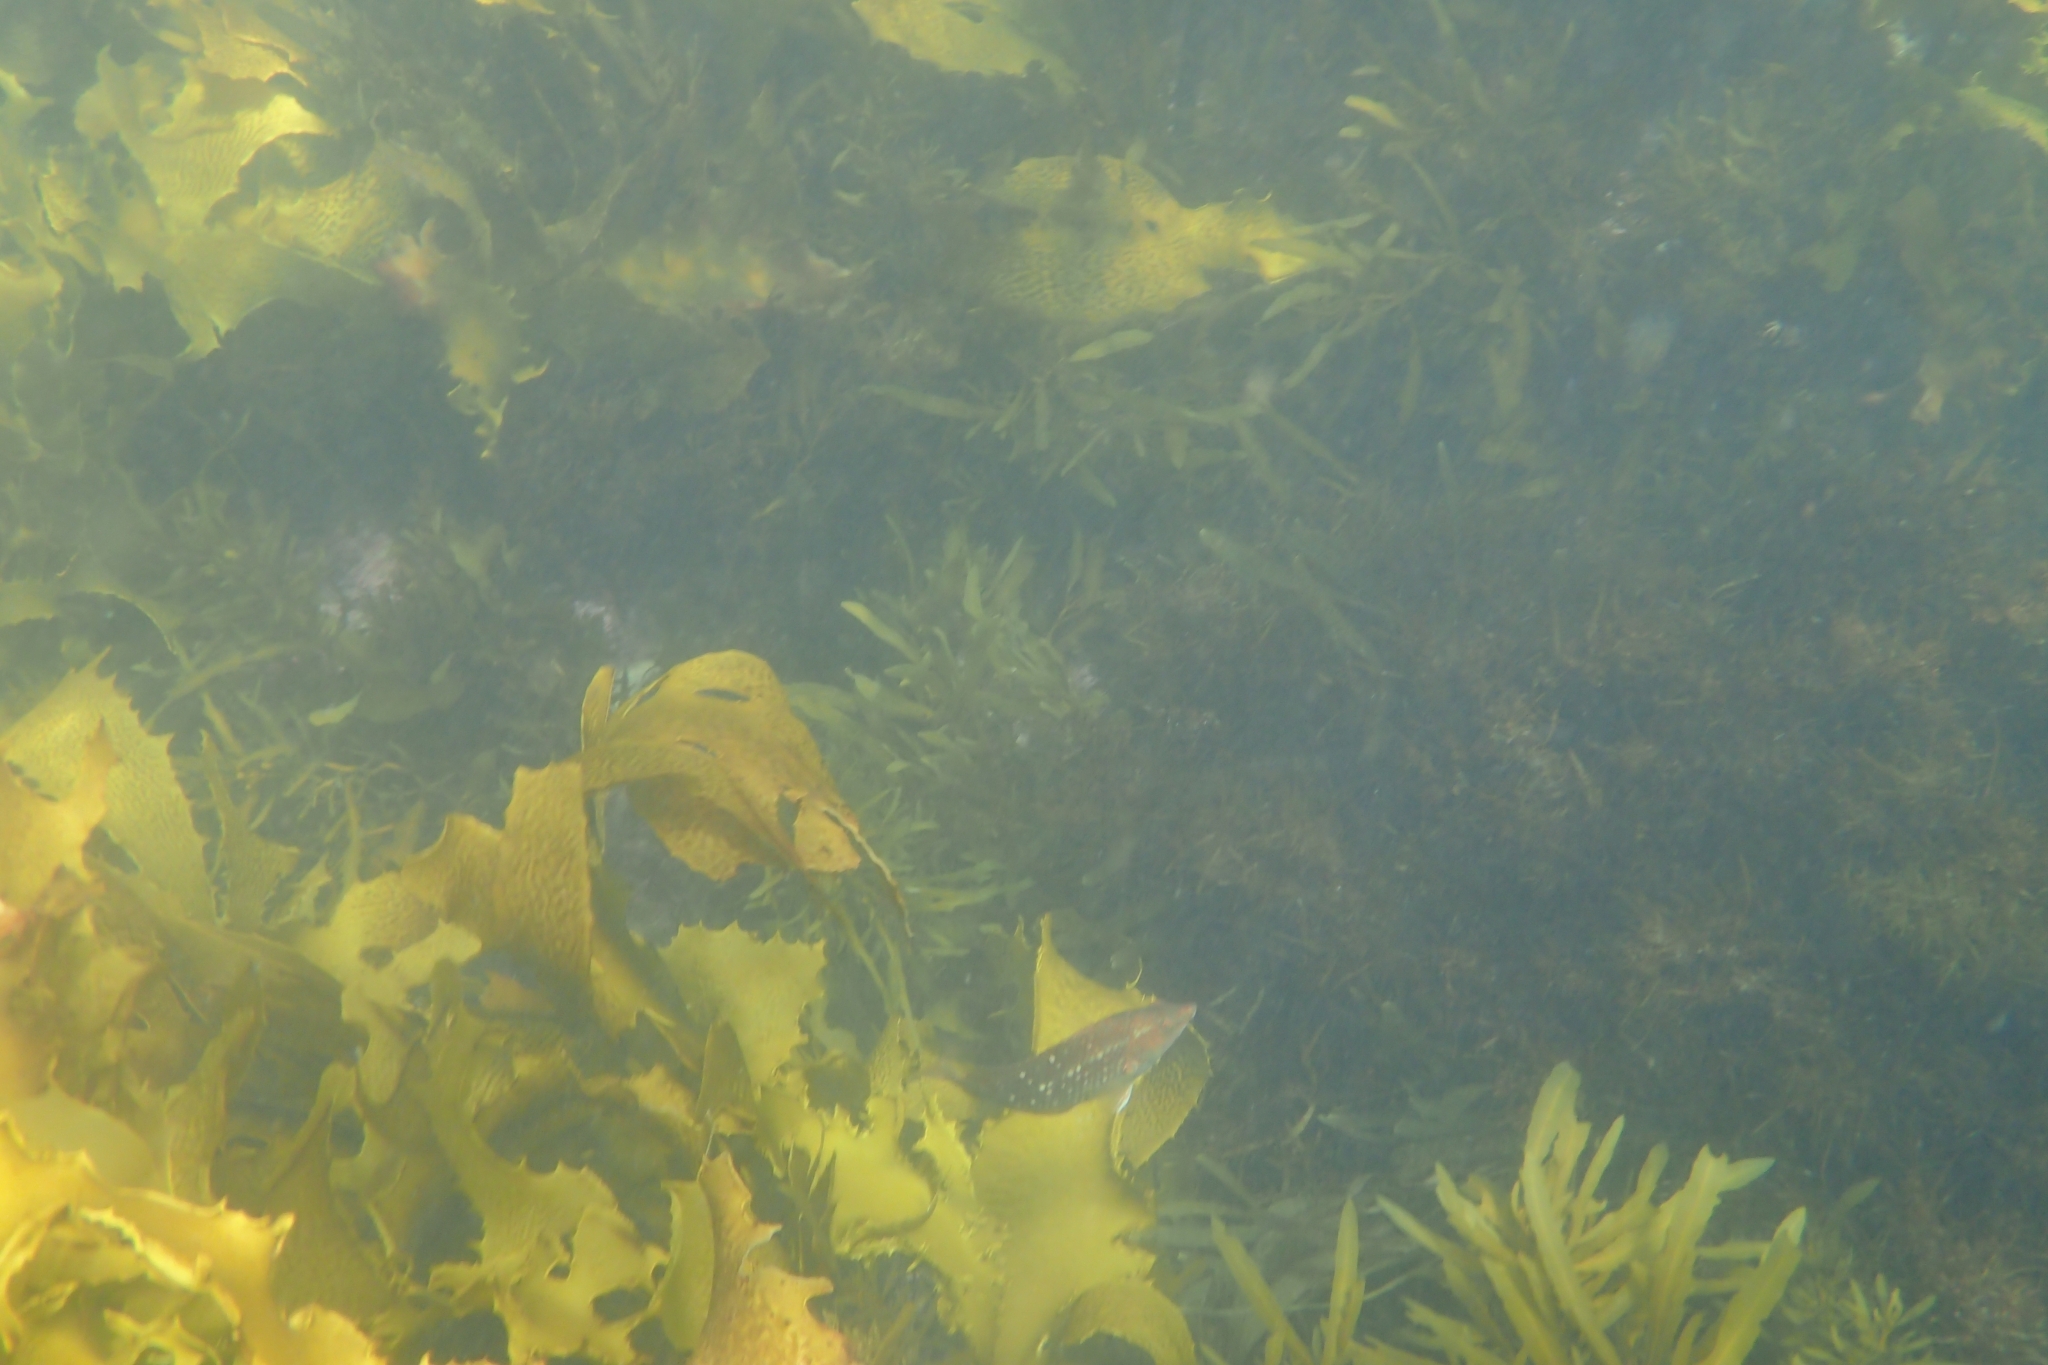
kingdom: Animalia
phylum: Chordata
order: Perciformes
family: Labridae
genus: Notolabrus
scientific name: Notolabrus gymnogenis
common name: Crimson banded wrasse
